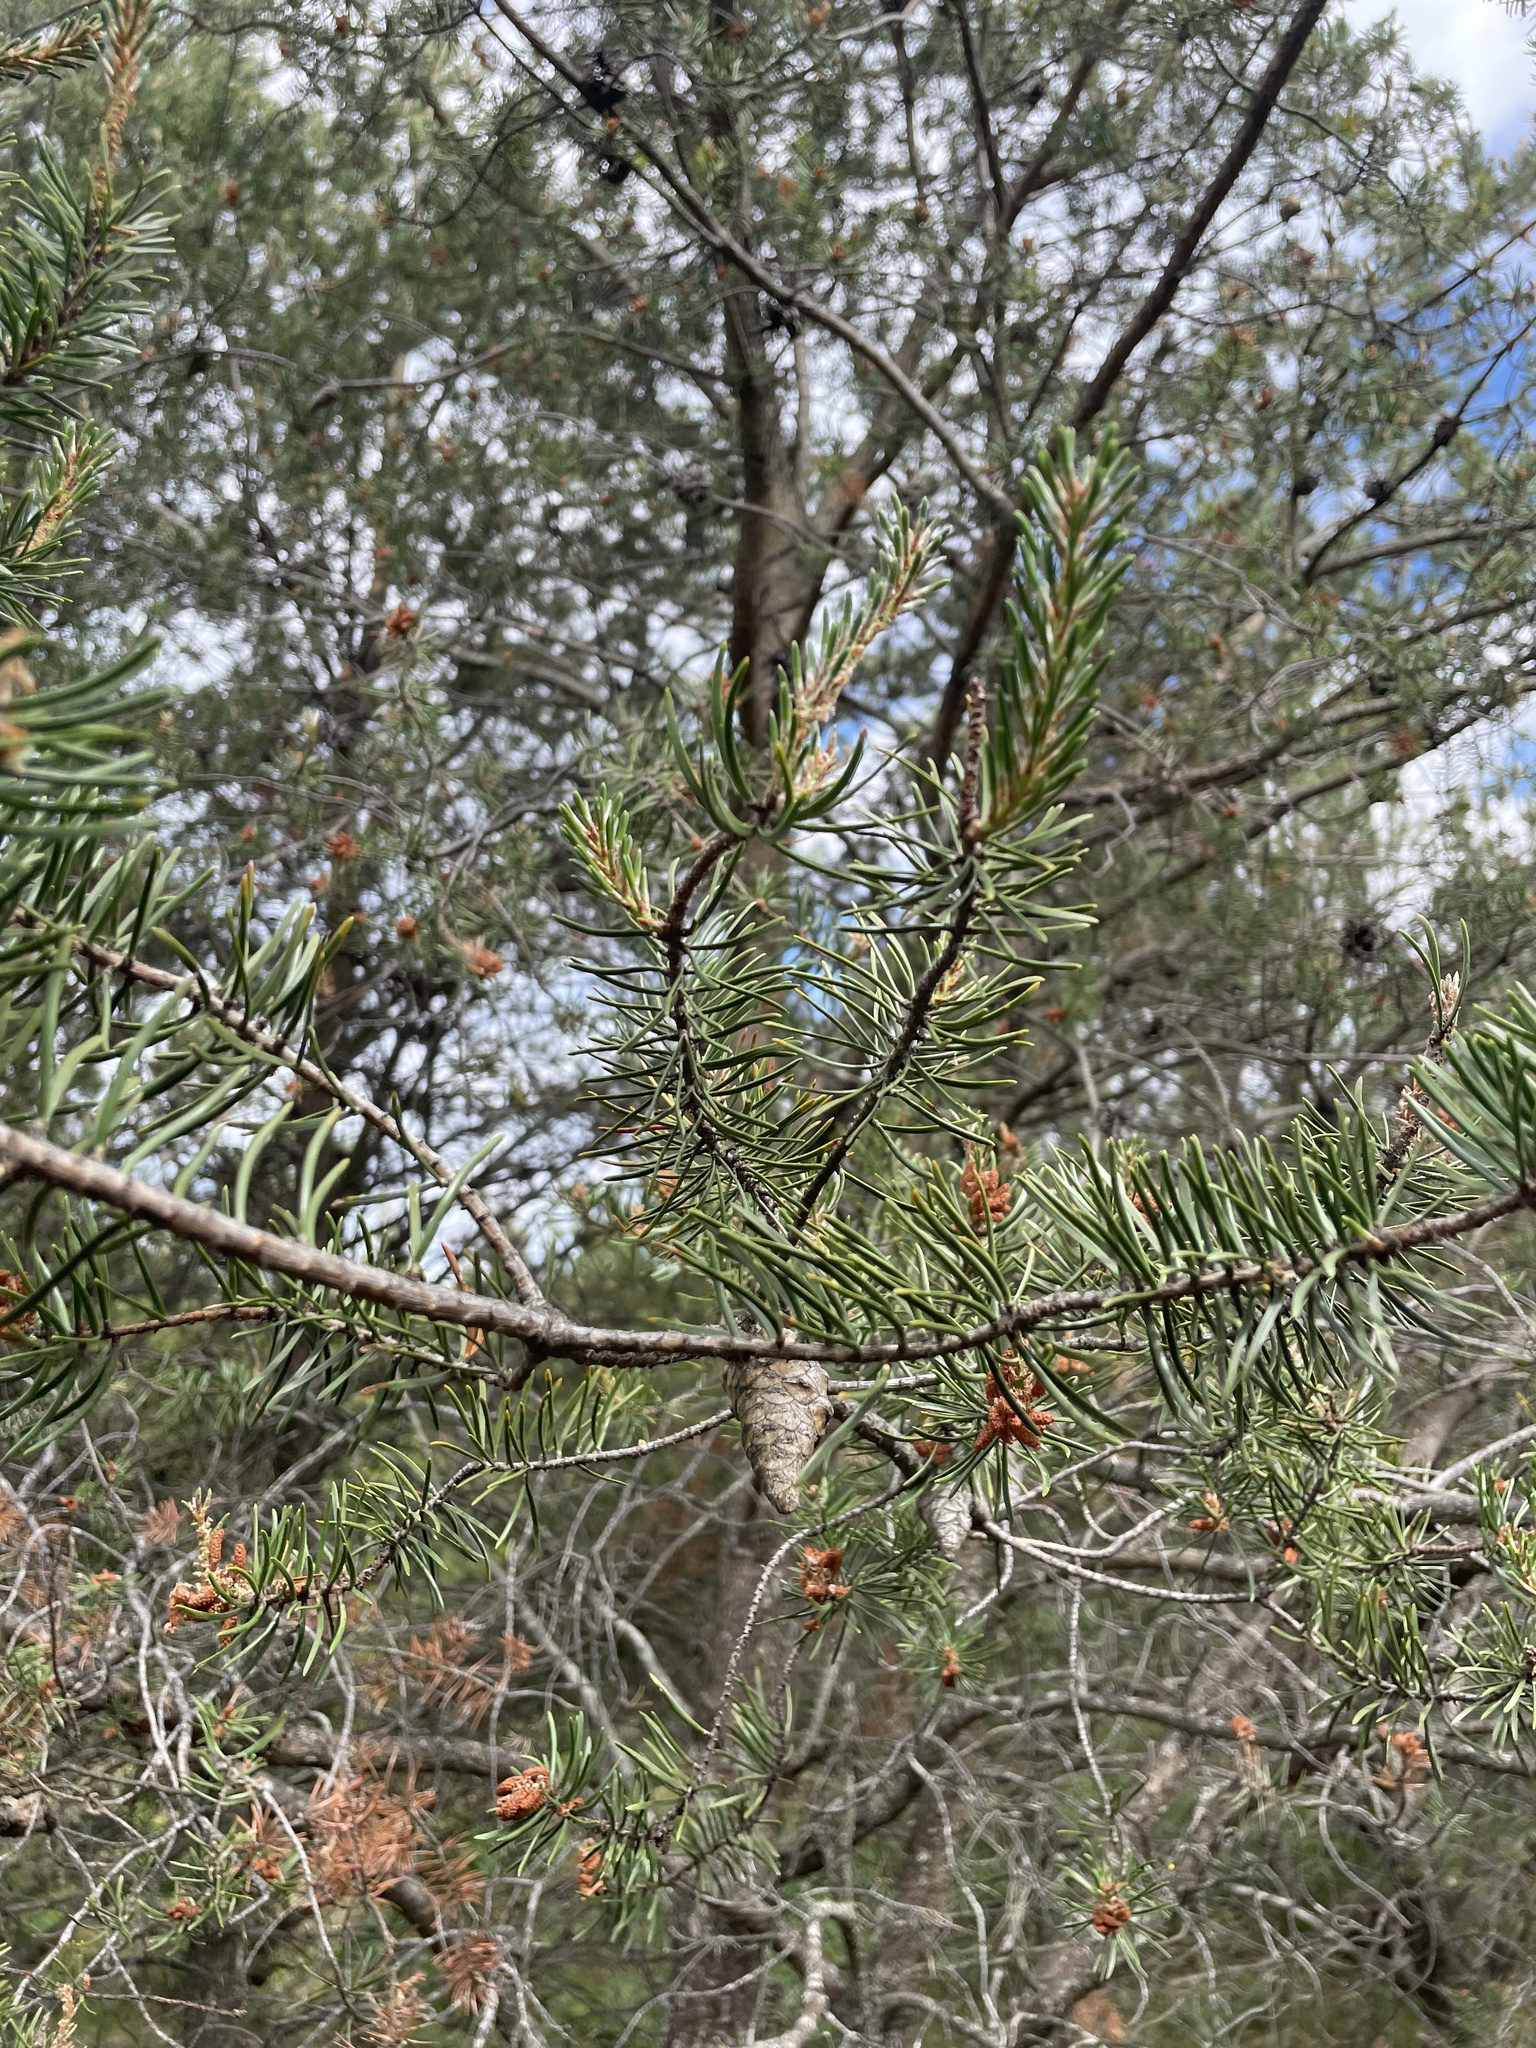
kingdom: Plantae
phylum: Tracheophyta
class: Pinopsida
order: Pinales
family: Pinaceae
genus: Pinus
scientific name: Pinus banksiana
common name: Jack pine
